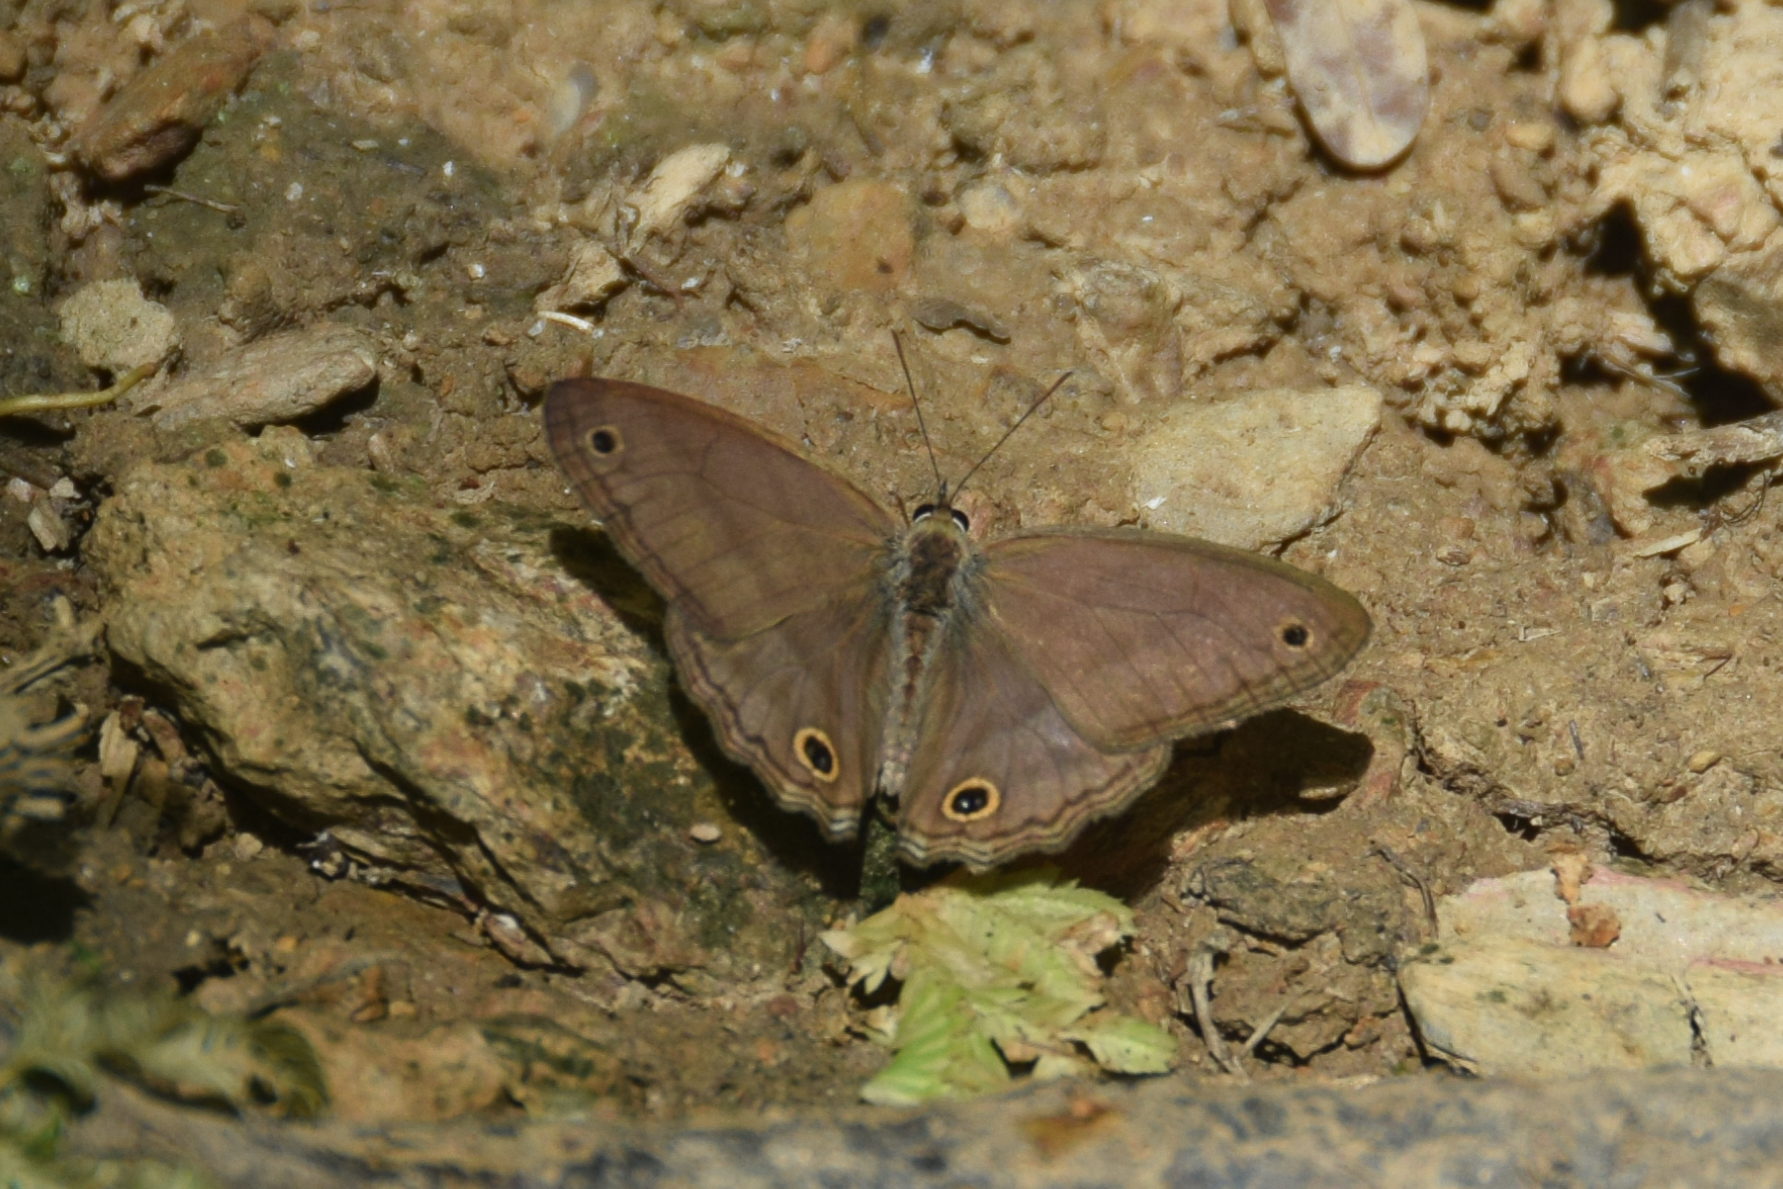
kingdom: Animalia
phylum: Arthropoda
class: Insecta
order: Lepidoptera
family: Nymphalidae
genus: Argyreuptychia
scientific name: Argyreuptychia penelope
